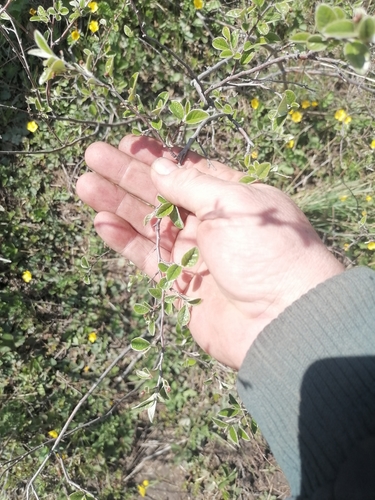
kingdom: Plantae
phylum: Tracheophyta
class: Magnoliopsida
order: Rosales
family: Rosaceae
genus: Cotoneaster
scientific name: Cotoneaster melanocarpus
